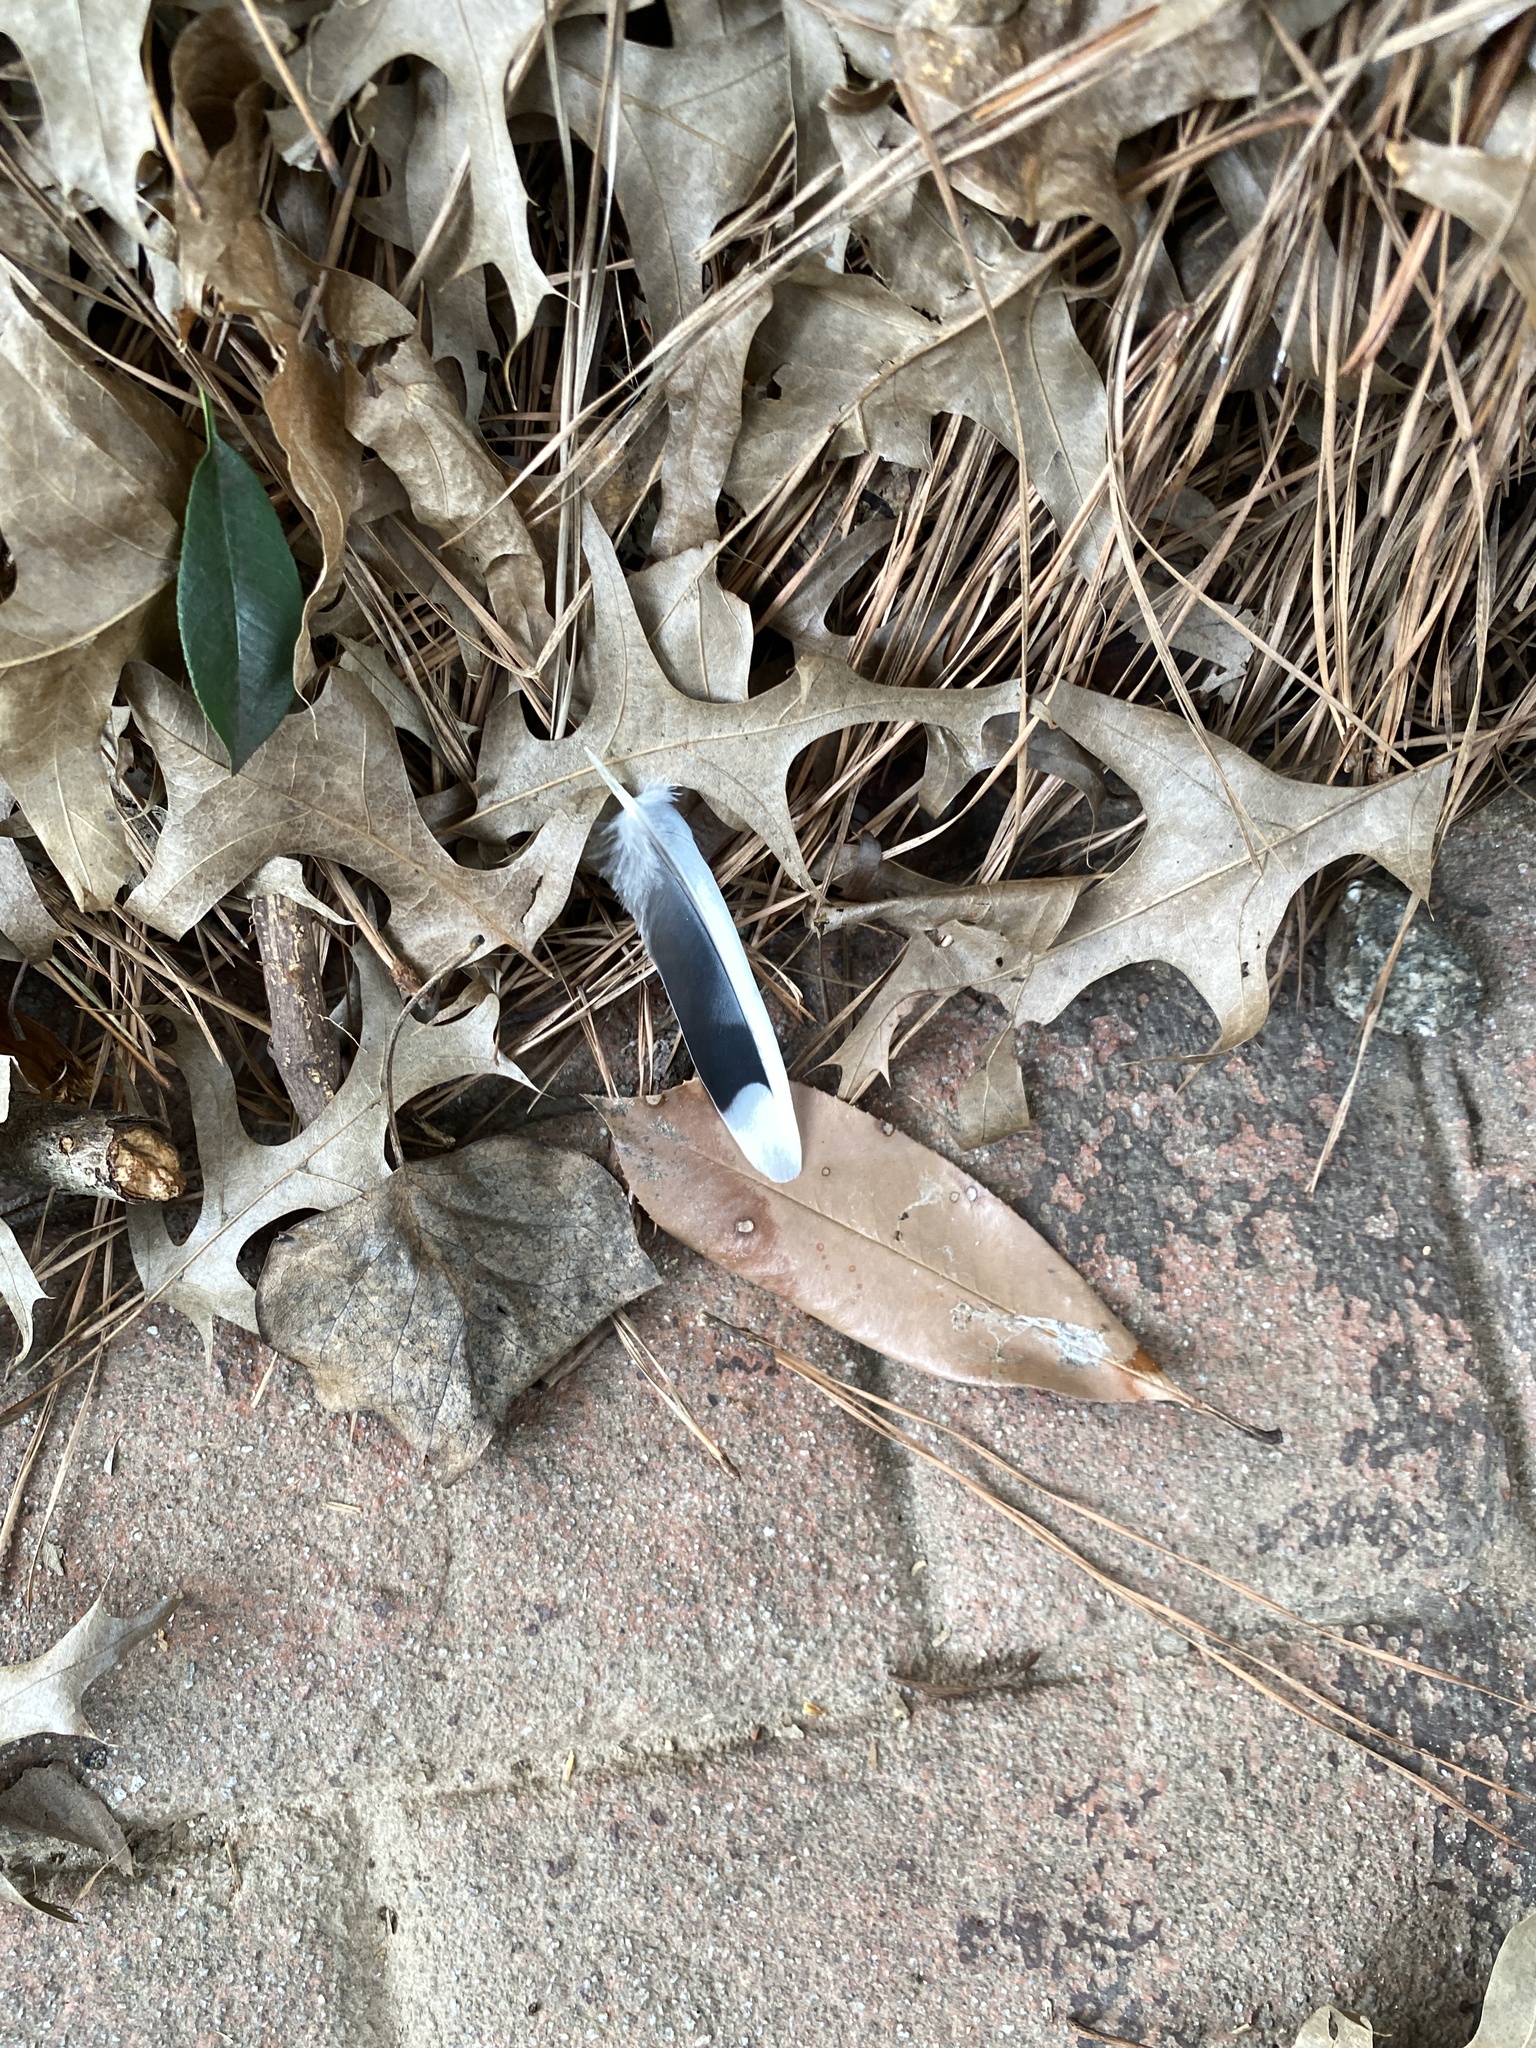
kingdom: Animalia
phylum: Chordata
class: Aves
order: Columbiformes
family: Columbidae
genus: Zenaida
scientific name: Zenaida macroura
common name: Mourning dove
